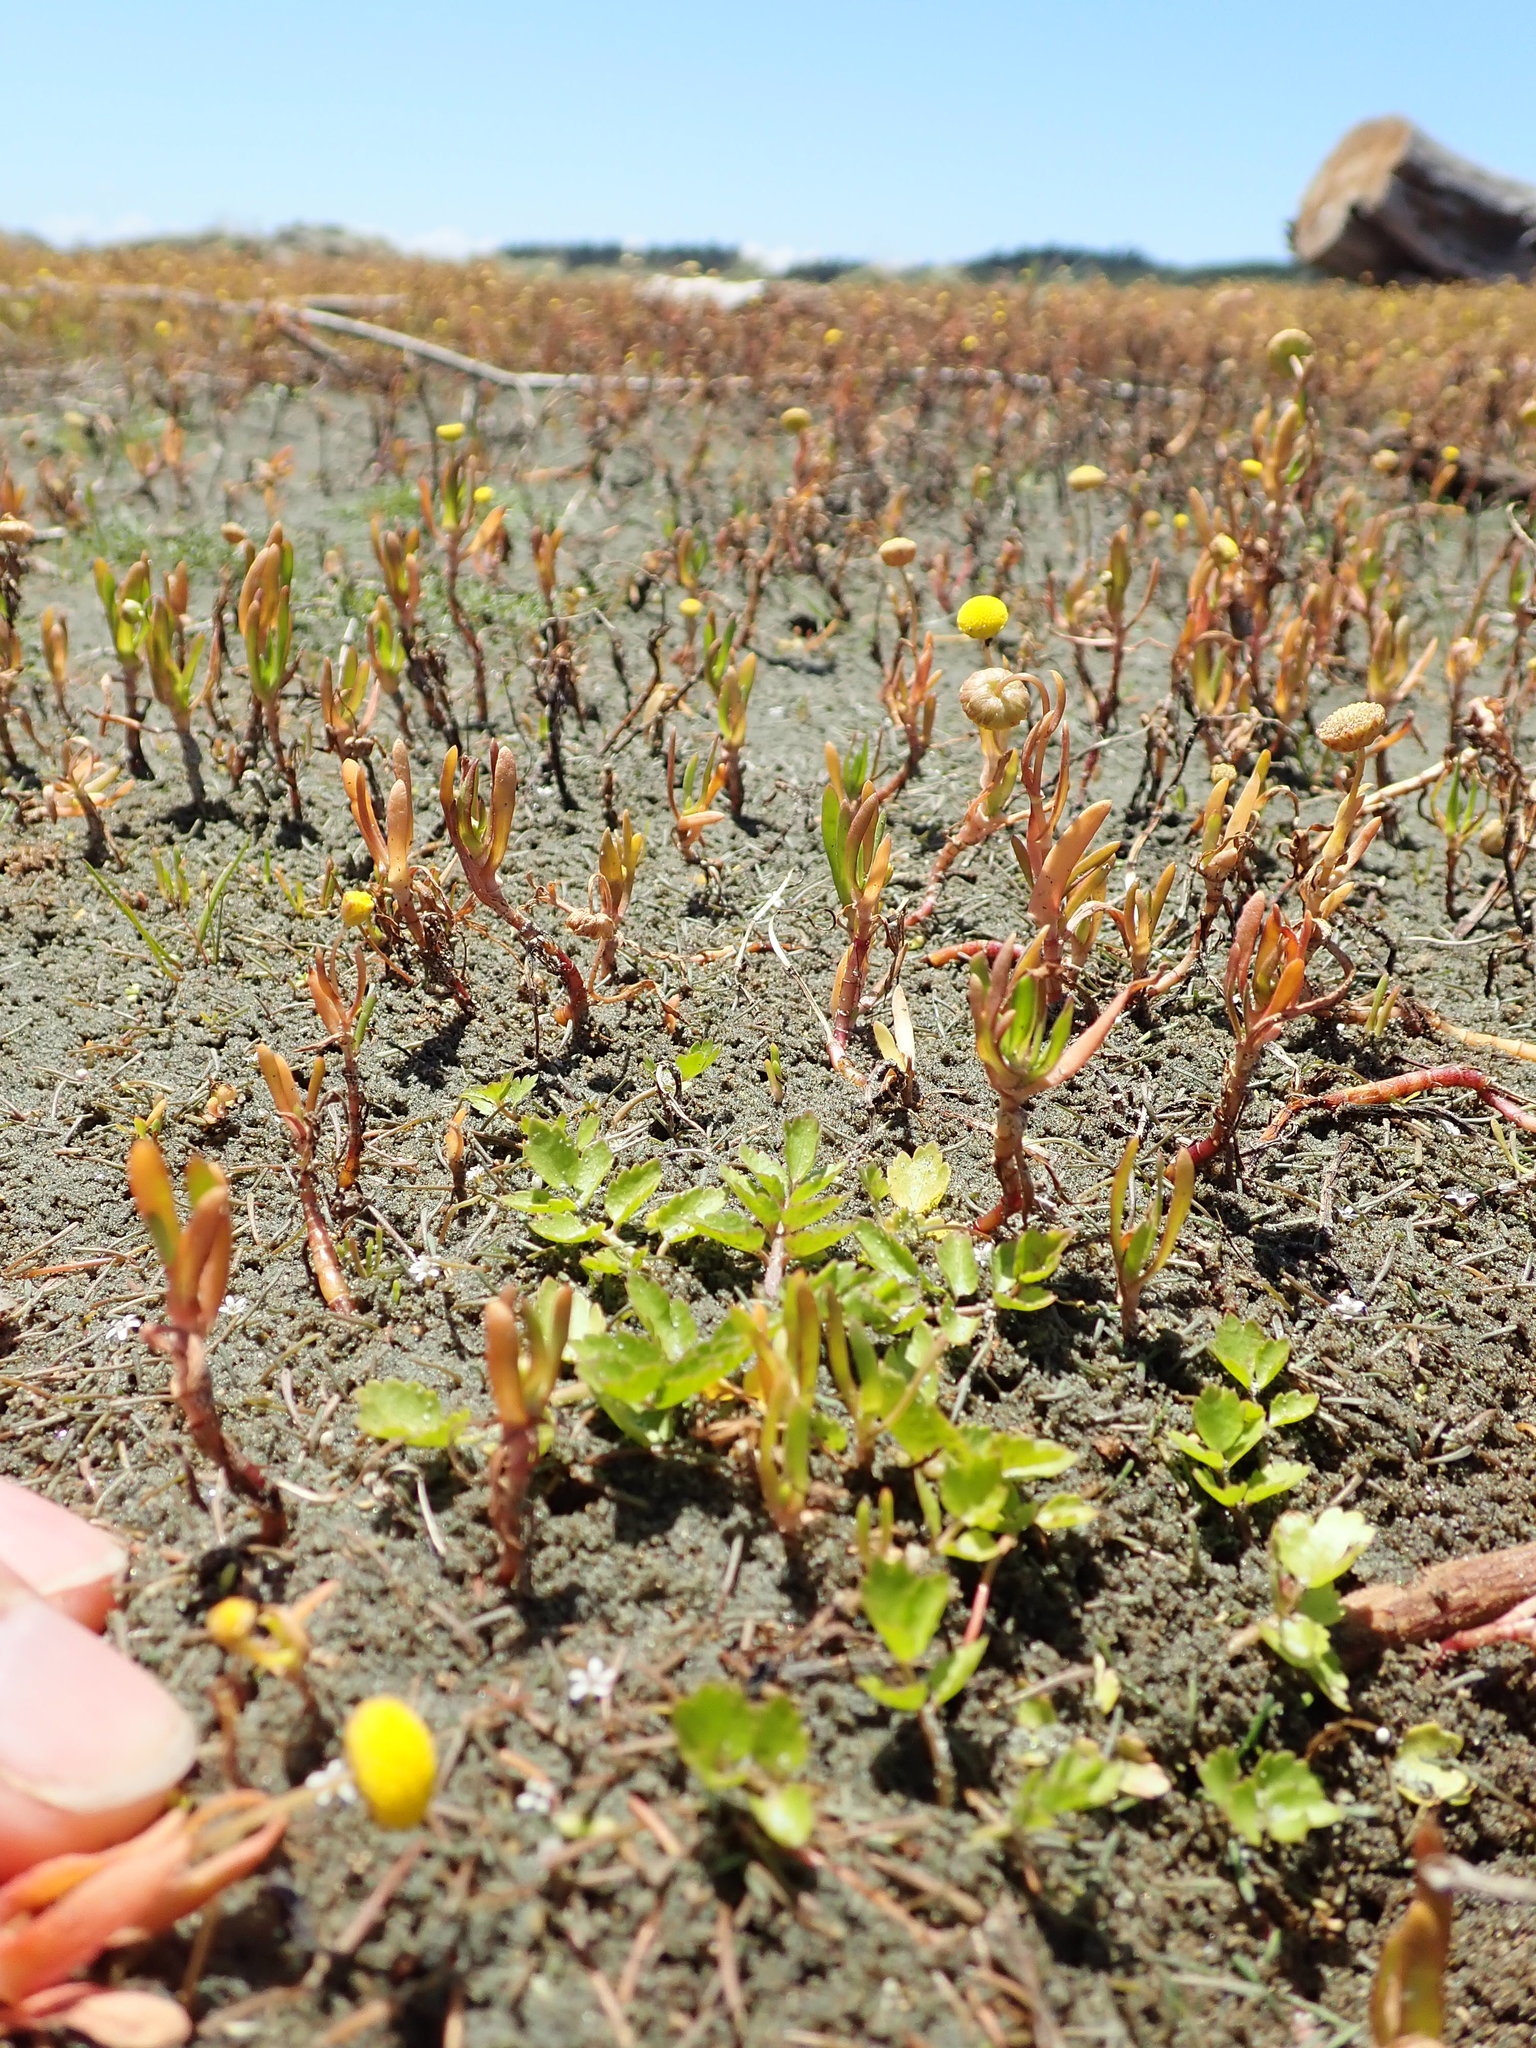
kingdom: Plantae
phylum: Tracheophyta
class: Magnoliopsida
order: Apiales
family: Apiaceae
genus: Helosciadium
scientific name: Helosciadium nodiflorum
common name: Fool's-watercress
